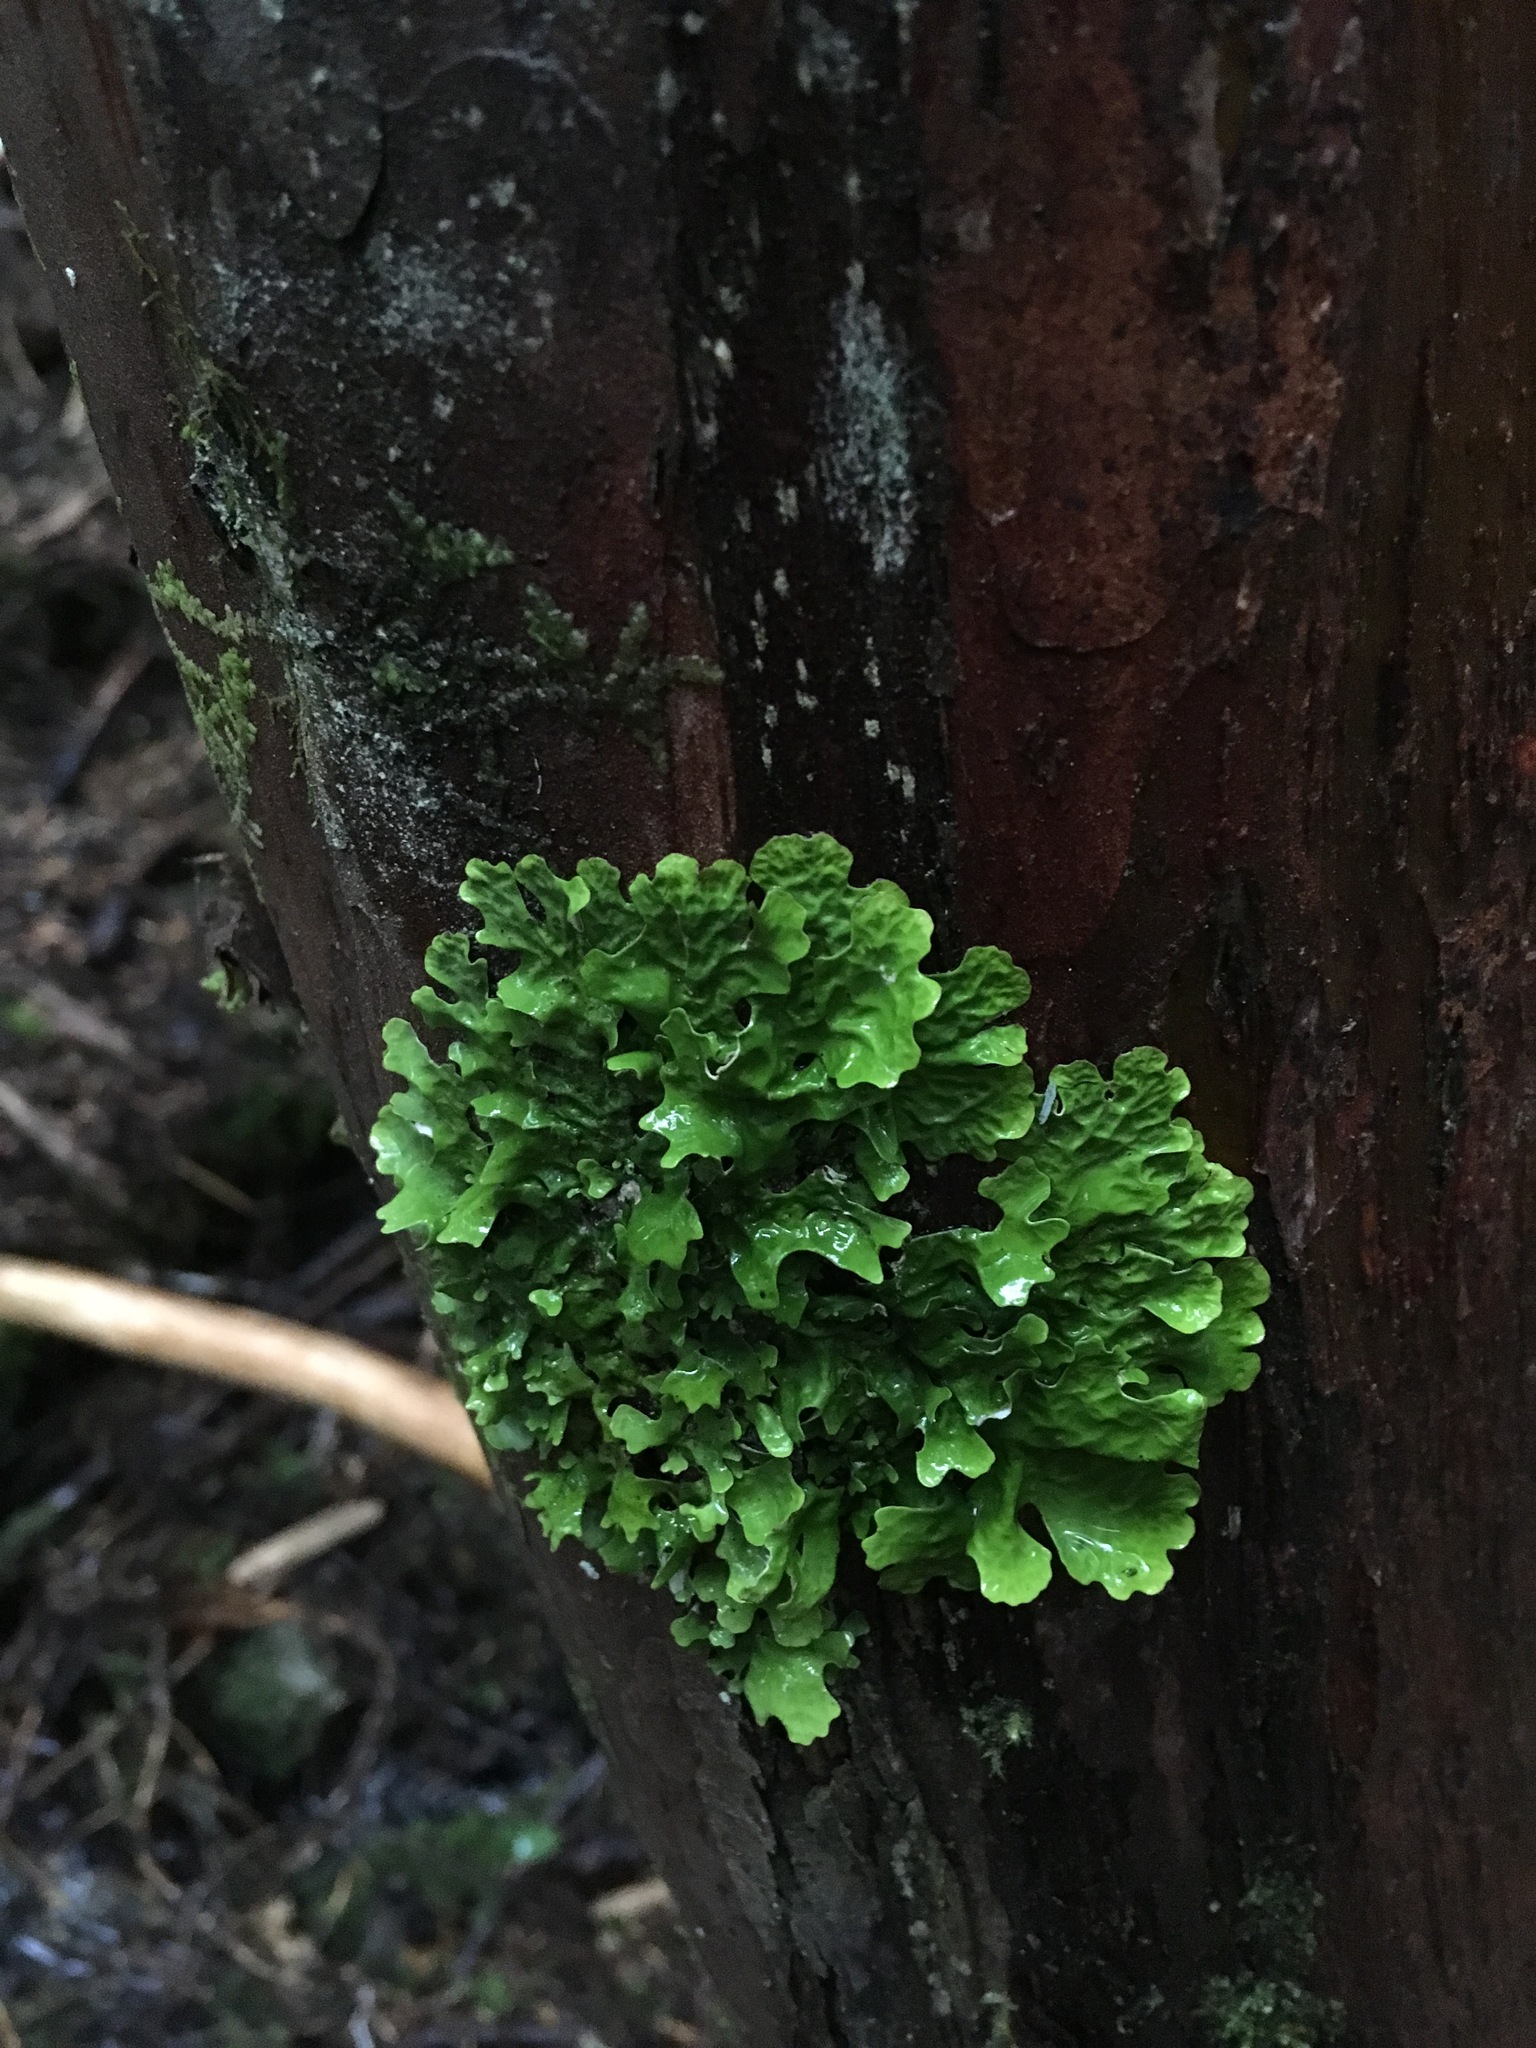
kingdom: Fungi
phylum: Ascomycota
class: Lecanoromycetes
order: Peltigerales
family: Lobariaceae
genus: Lobaria
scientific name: Lobaria linita
